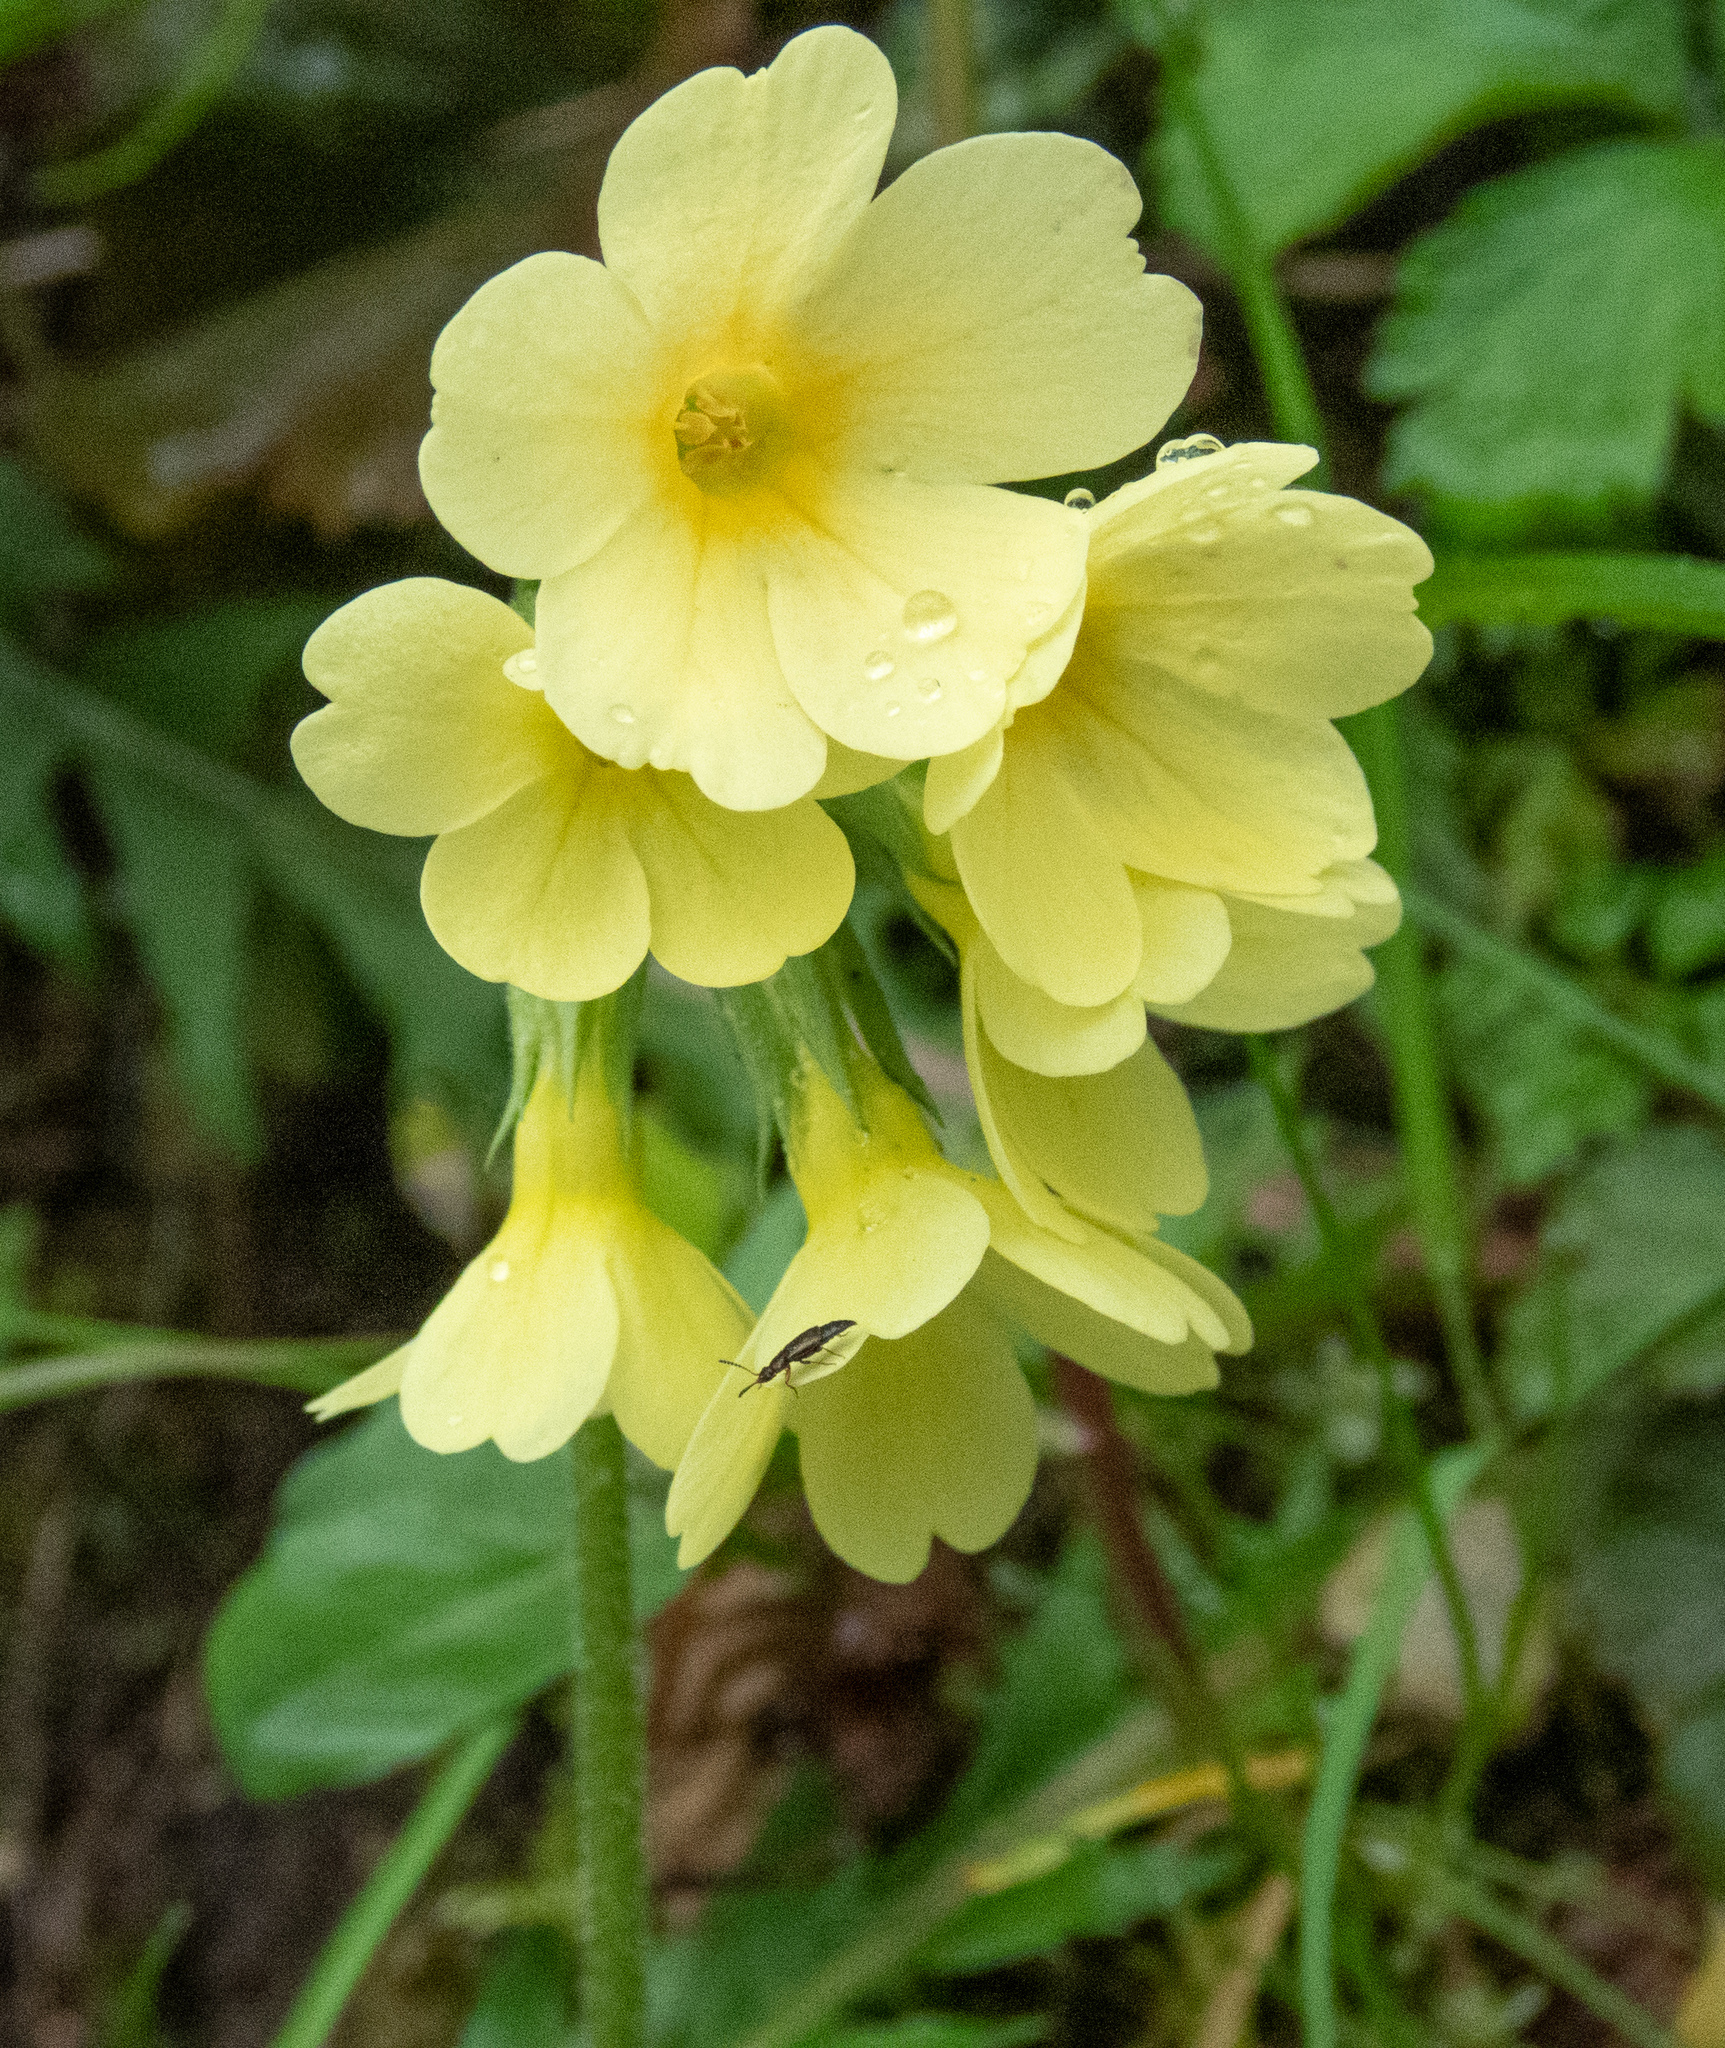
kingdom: Plantae
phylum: Tracheophyta
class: Magnoliopsida
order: Ericales
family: Primulaceae
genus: Primula
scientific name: Primula elatior
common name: Oxlip
